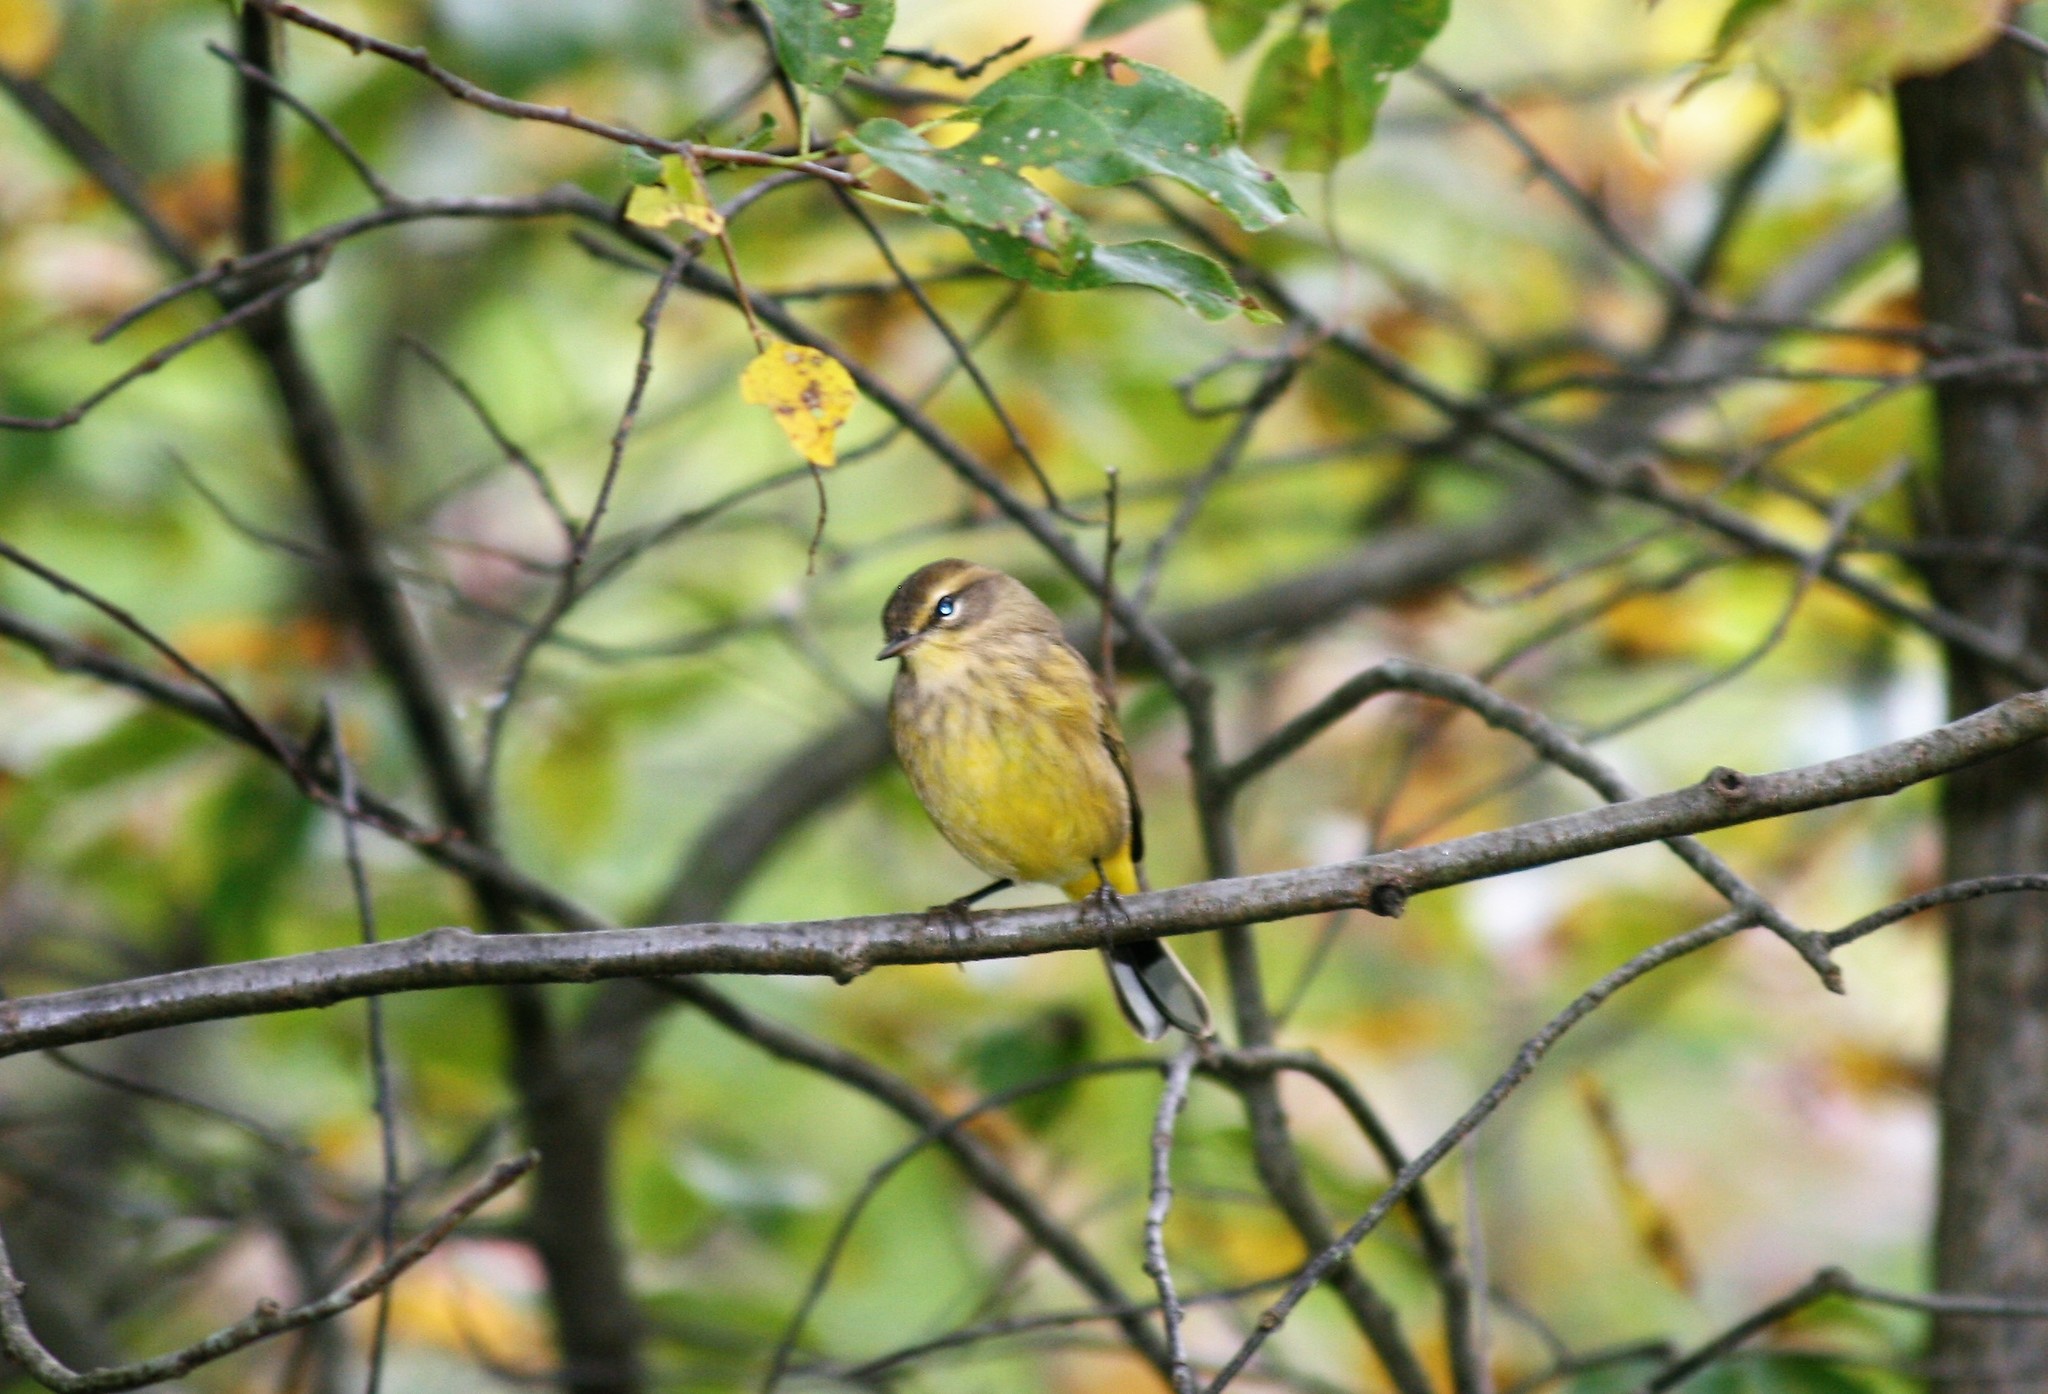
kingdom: Animalia
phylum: Chordata
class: Aves
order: Passeriformes
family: Parulidae
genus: Setophaga
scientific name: Setophaga palmarum
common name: Palm warbler
